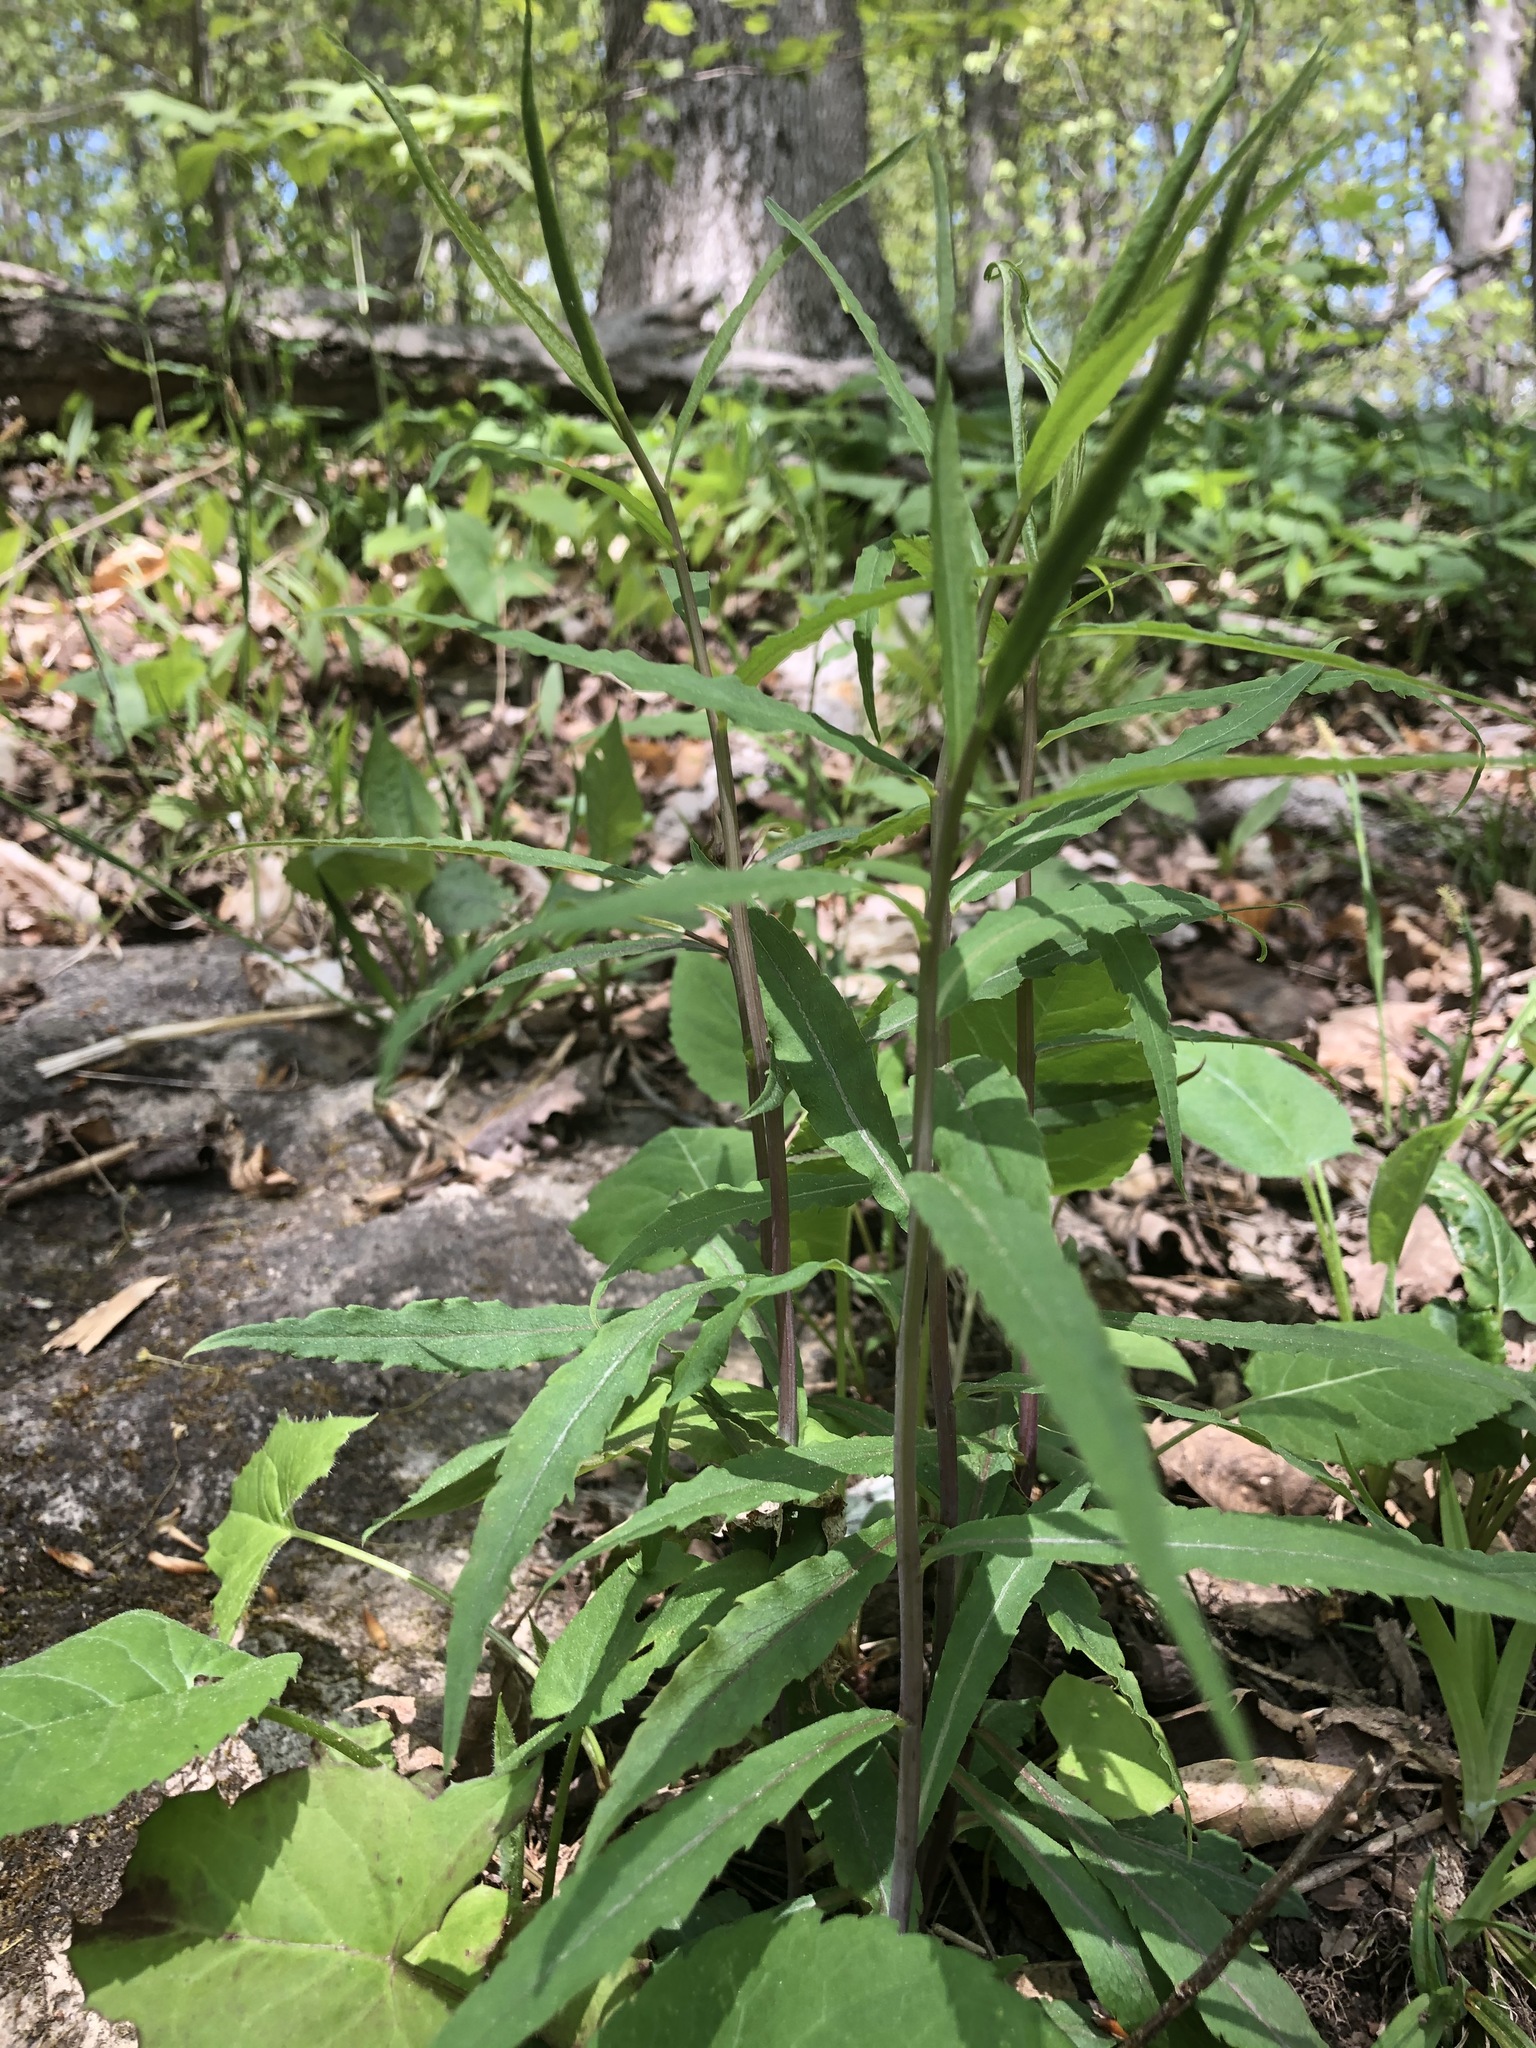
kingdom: Plantae
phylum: Tracheophyta
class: Magnoliopsida
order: Asterales
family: Asteraceae
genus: Solidago
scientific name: Solidago caesia
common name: Woodland goldenrod
